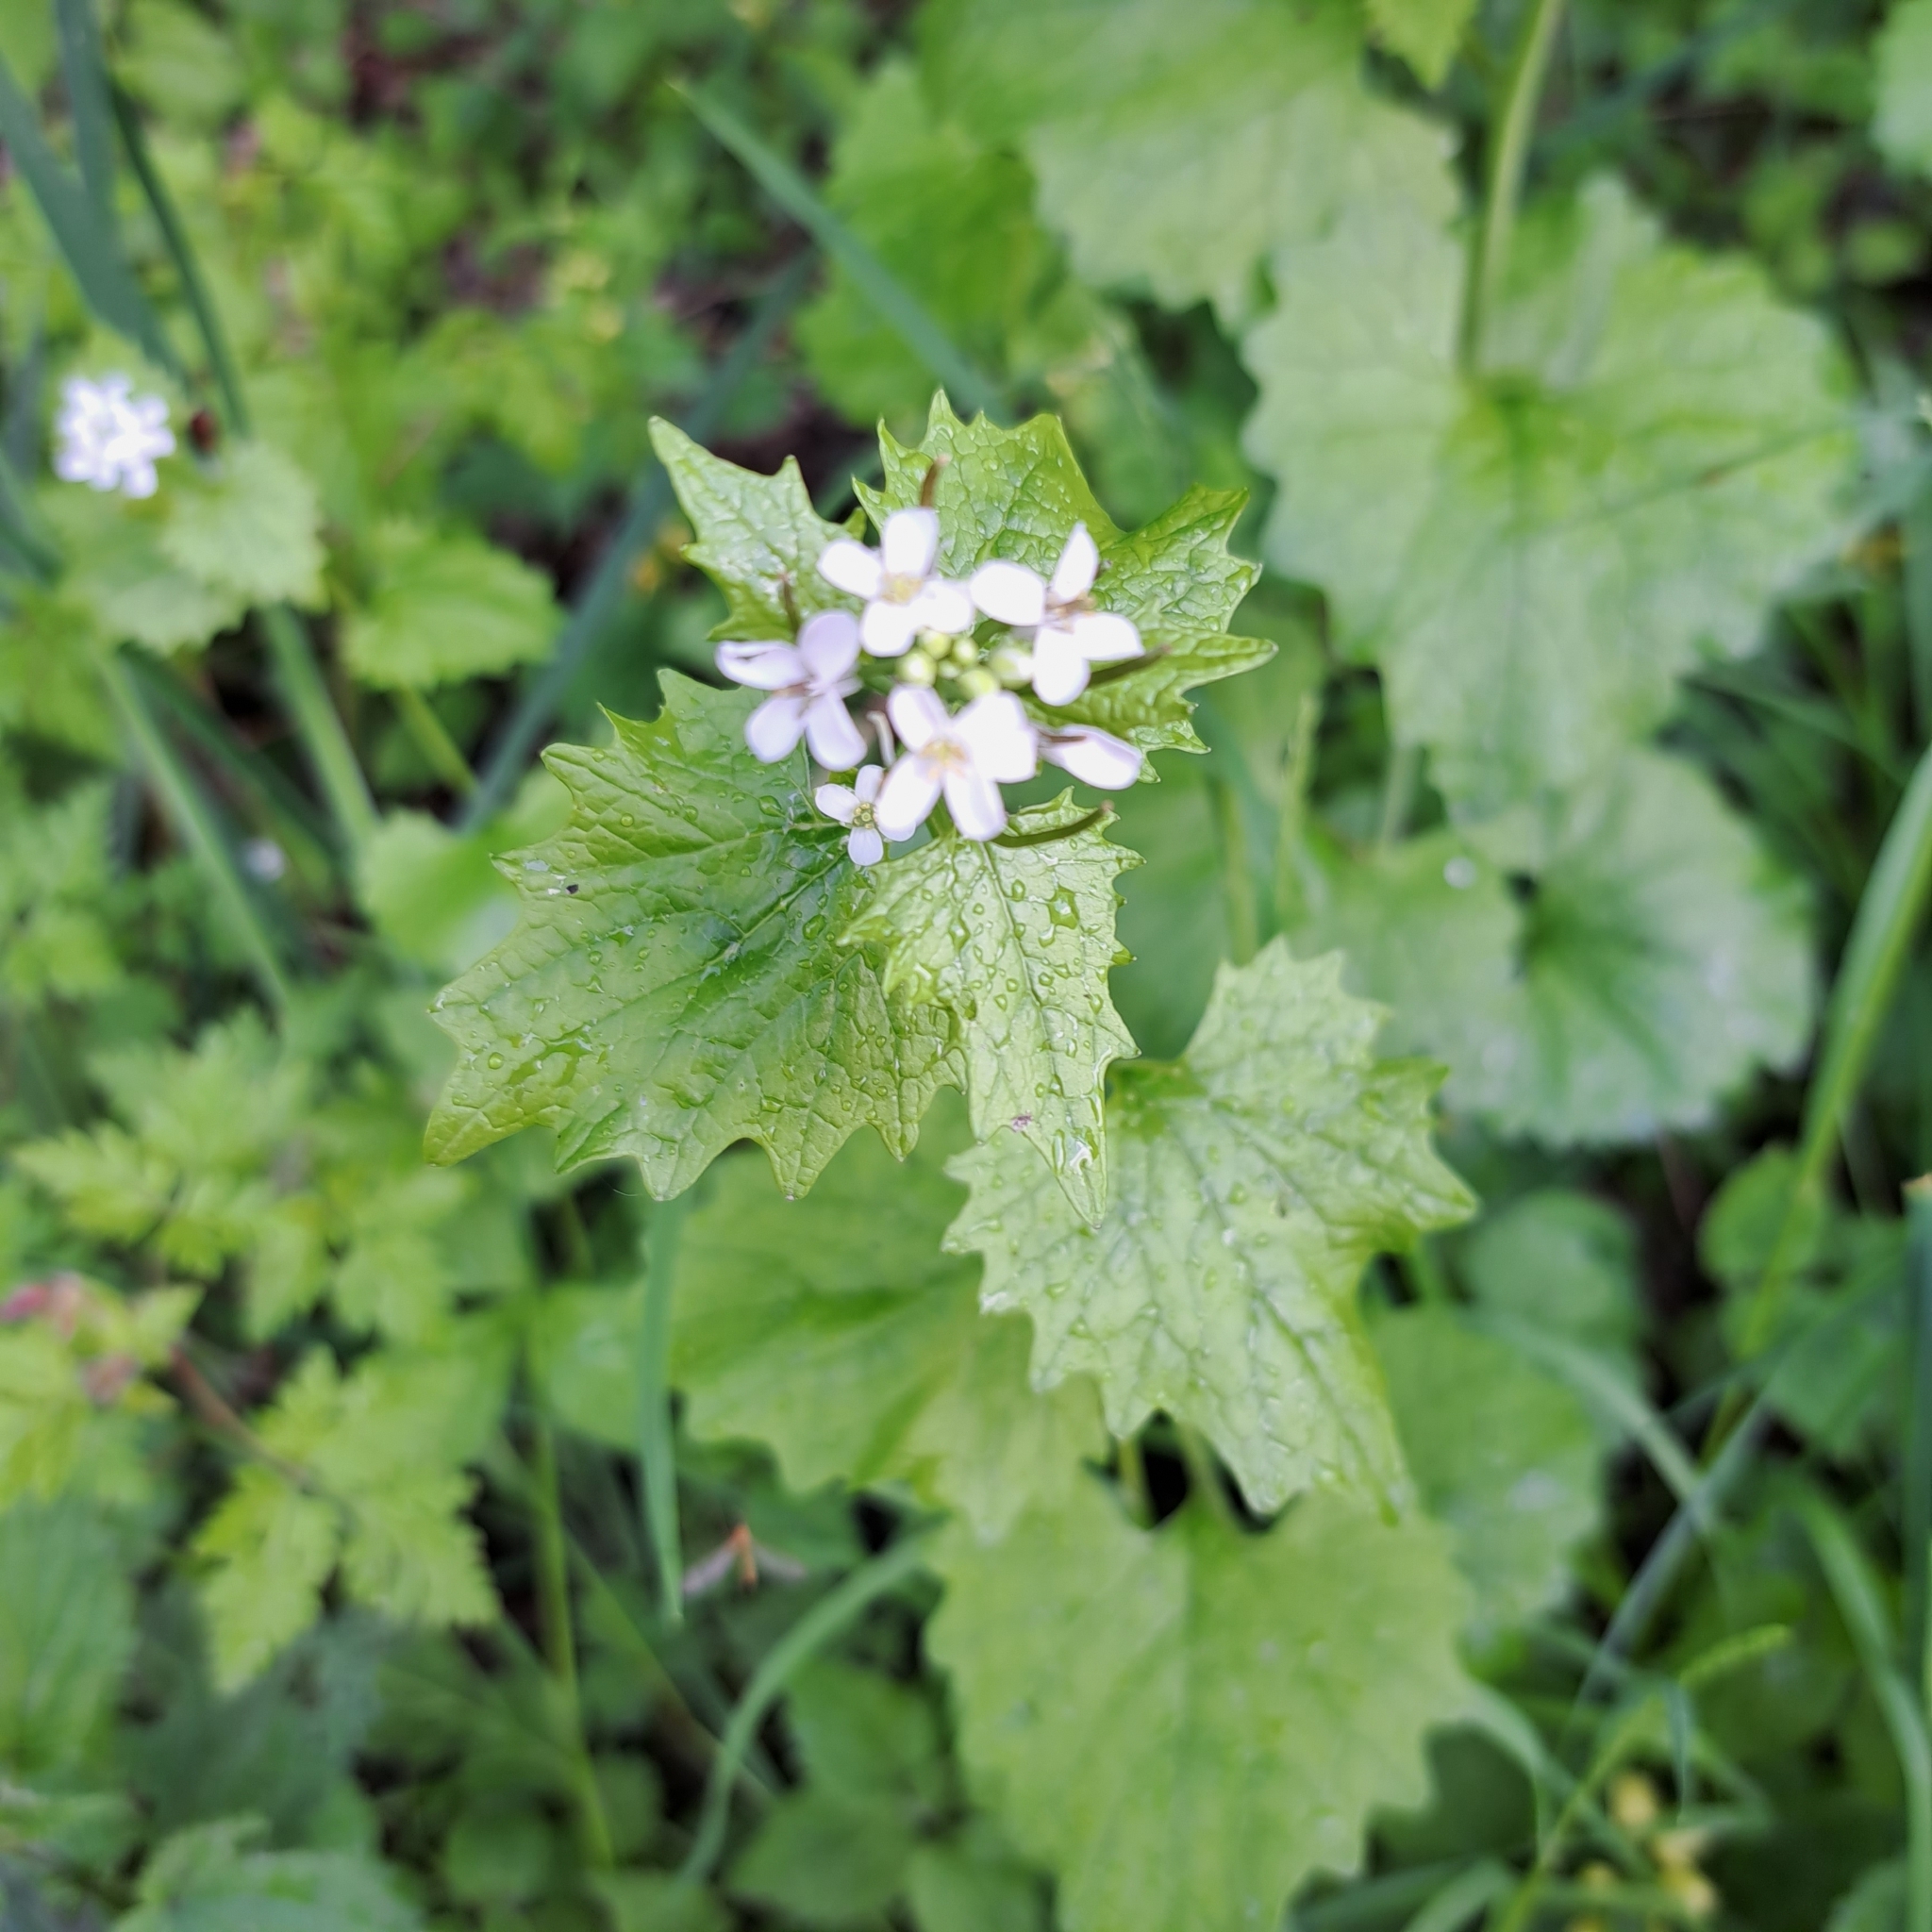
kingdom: Plantae
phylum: Tracheophyta
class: Magnoliopsida
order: Brassicales
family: Brassicaceae
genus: Alliaria
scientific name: Alliaria petiolata
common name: Garlic mustard
